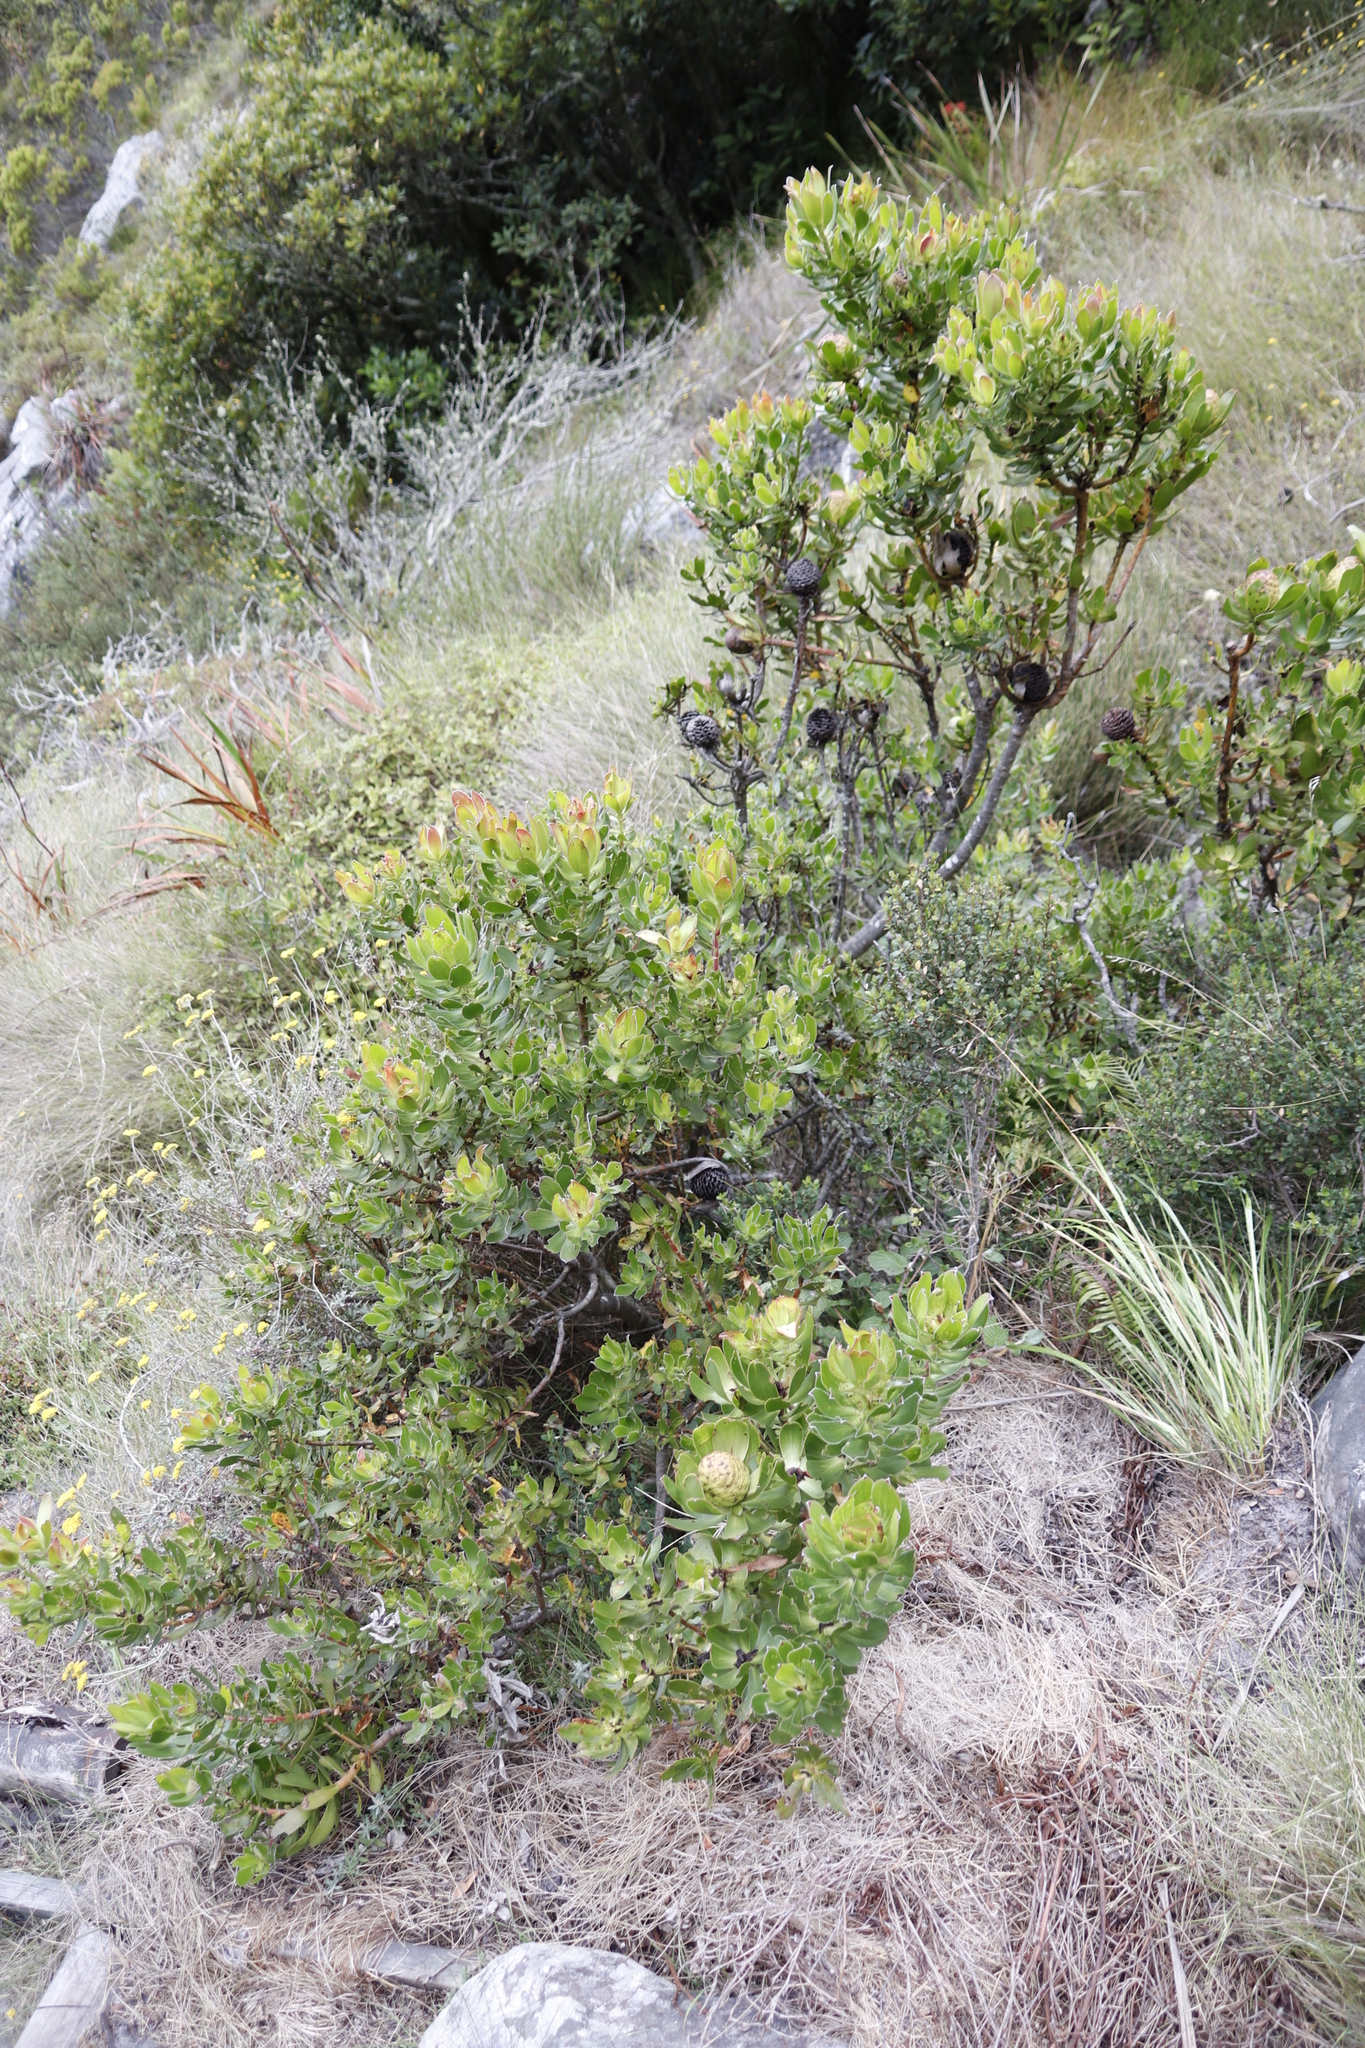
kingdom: Plantae
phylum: Tracheophyta
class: Magnoliopsida
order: Proteales
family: Proteaceae
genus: Leucadendron
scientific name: Leucadendron strobilinum
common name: Mountain rose
